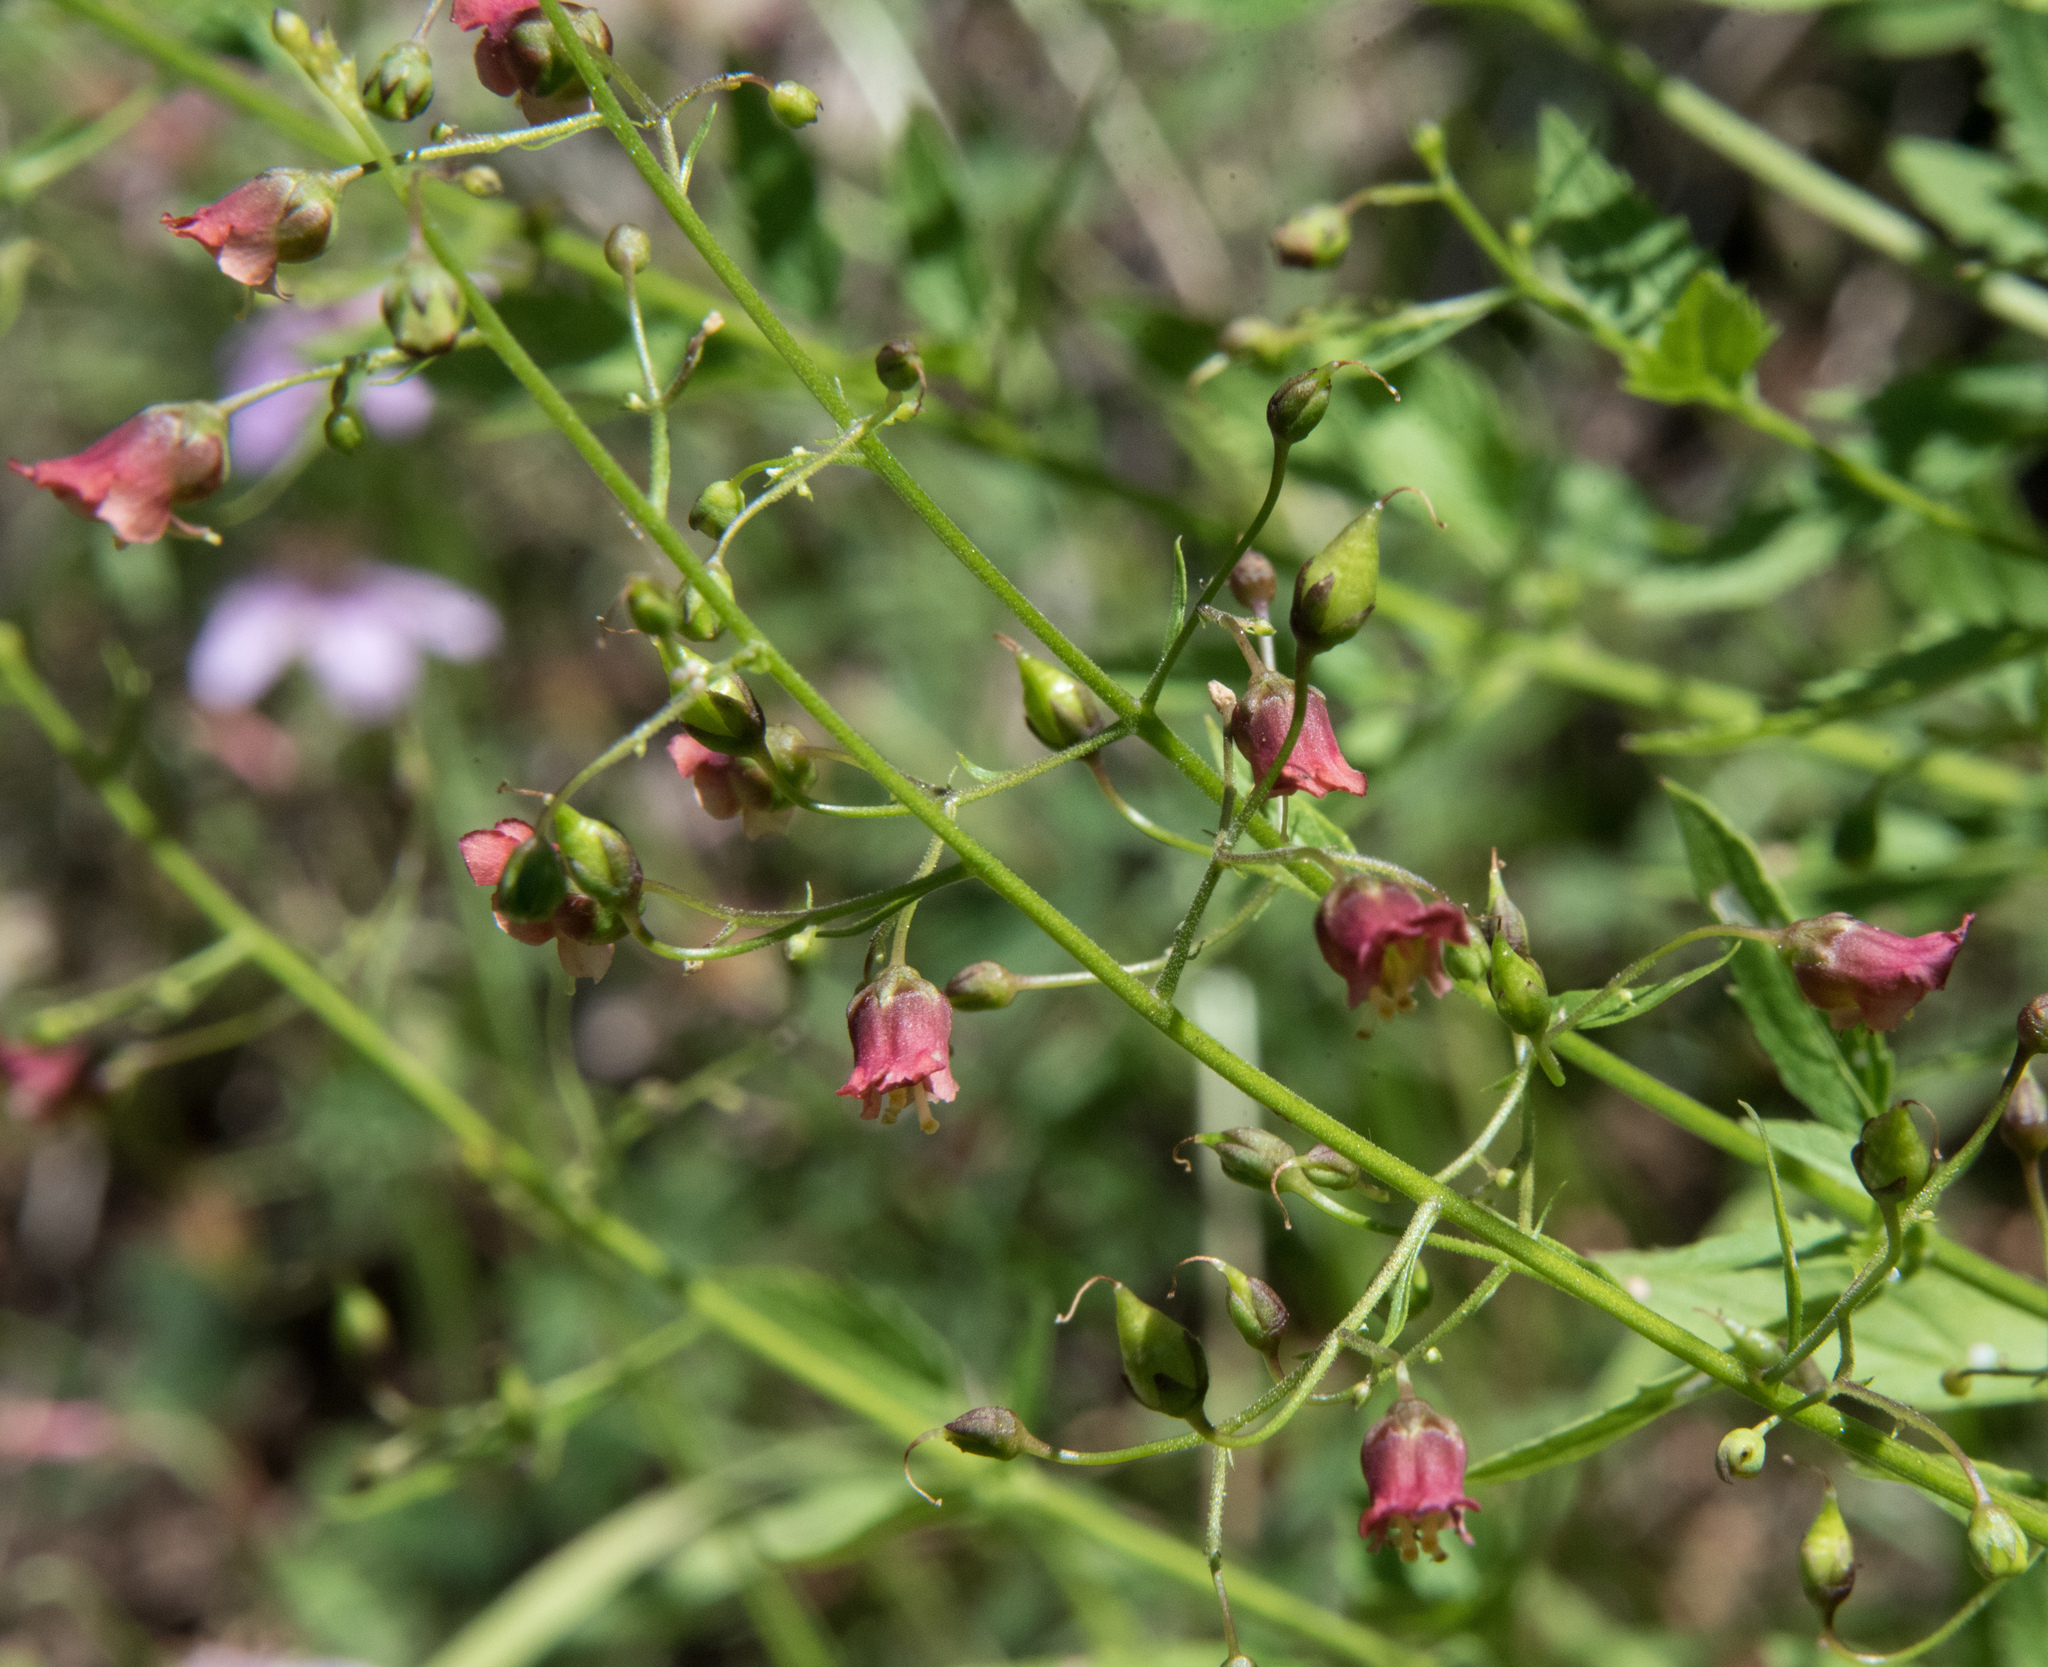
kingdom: Plantae
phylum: Tracheophyta
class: Magnoliopsida
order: Lamiales
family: Scrophulariaceae
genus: Scrophularia
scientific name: Scrophularia parviflora
